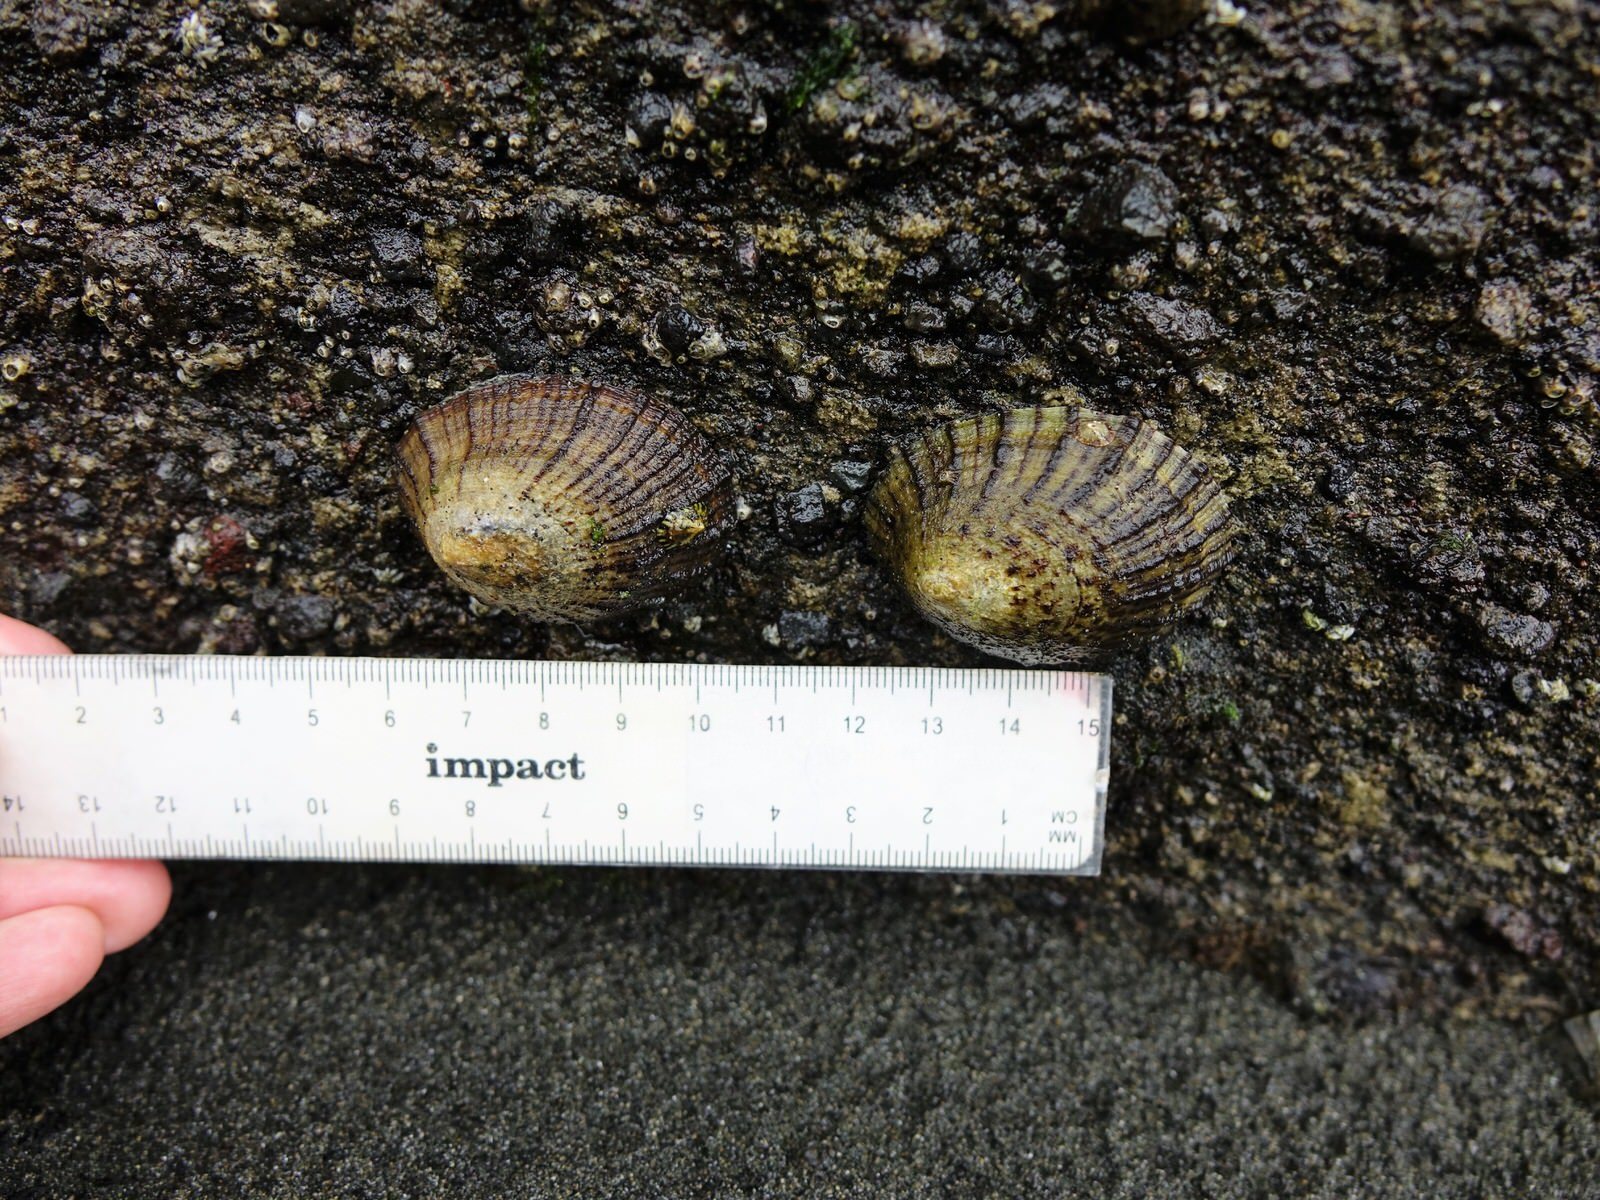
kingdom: Animalia
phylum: Mollusca
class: Gastropoda
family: Nacellidae
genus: Cellana
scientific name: Cellana radians
